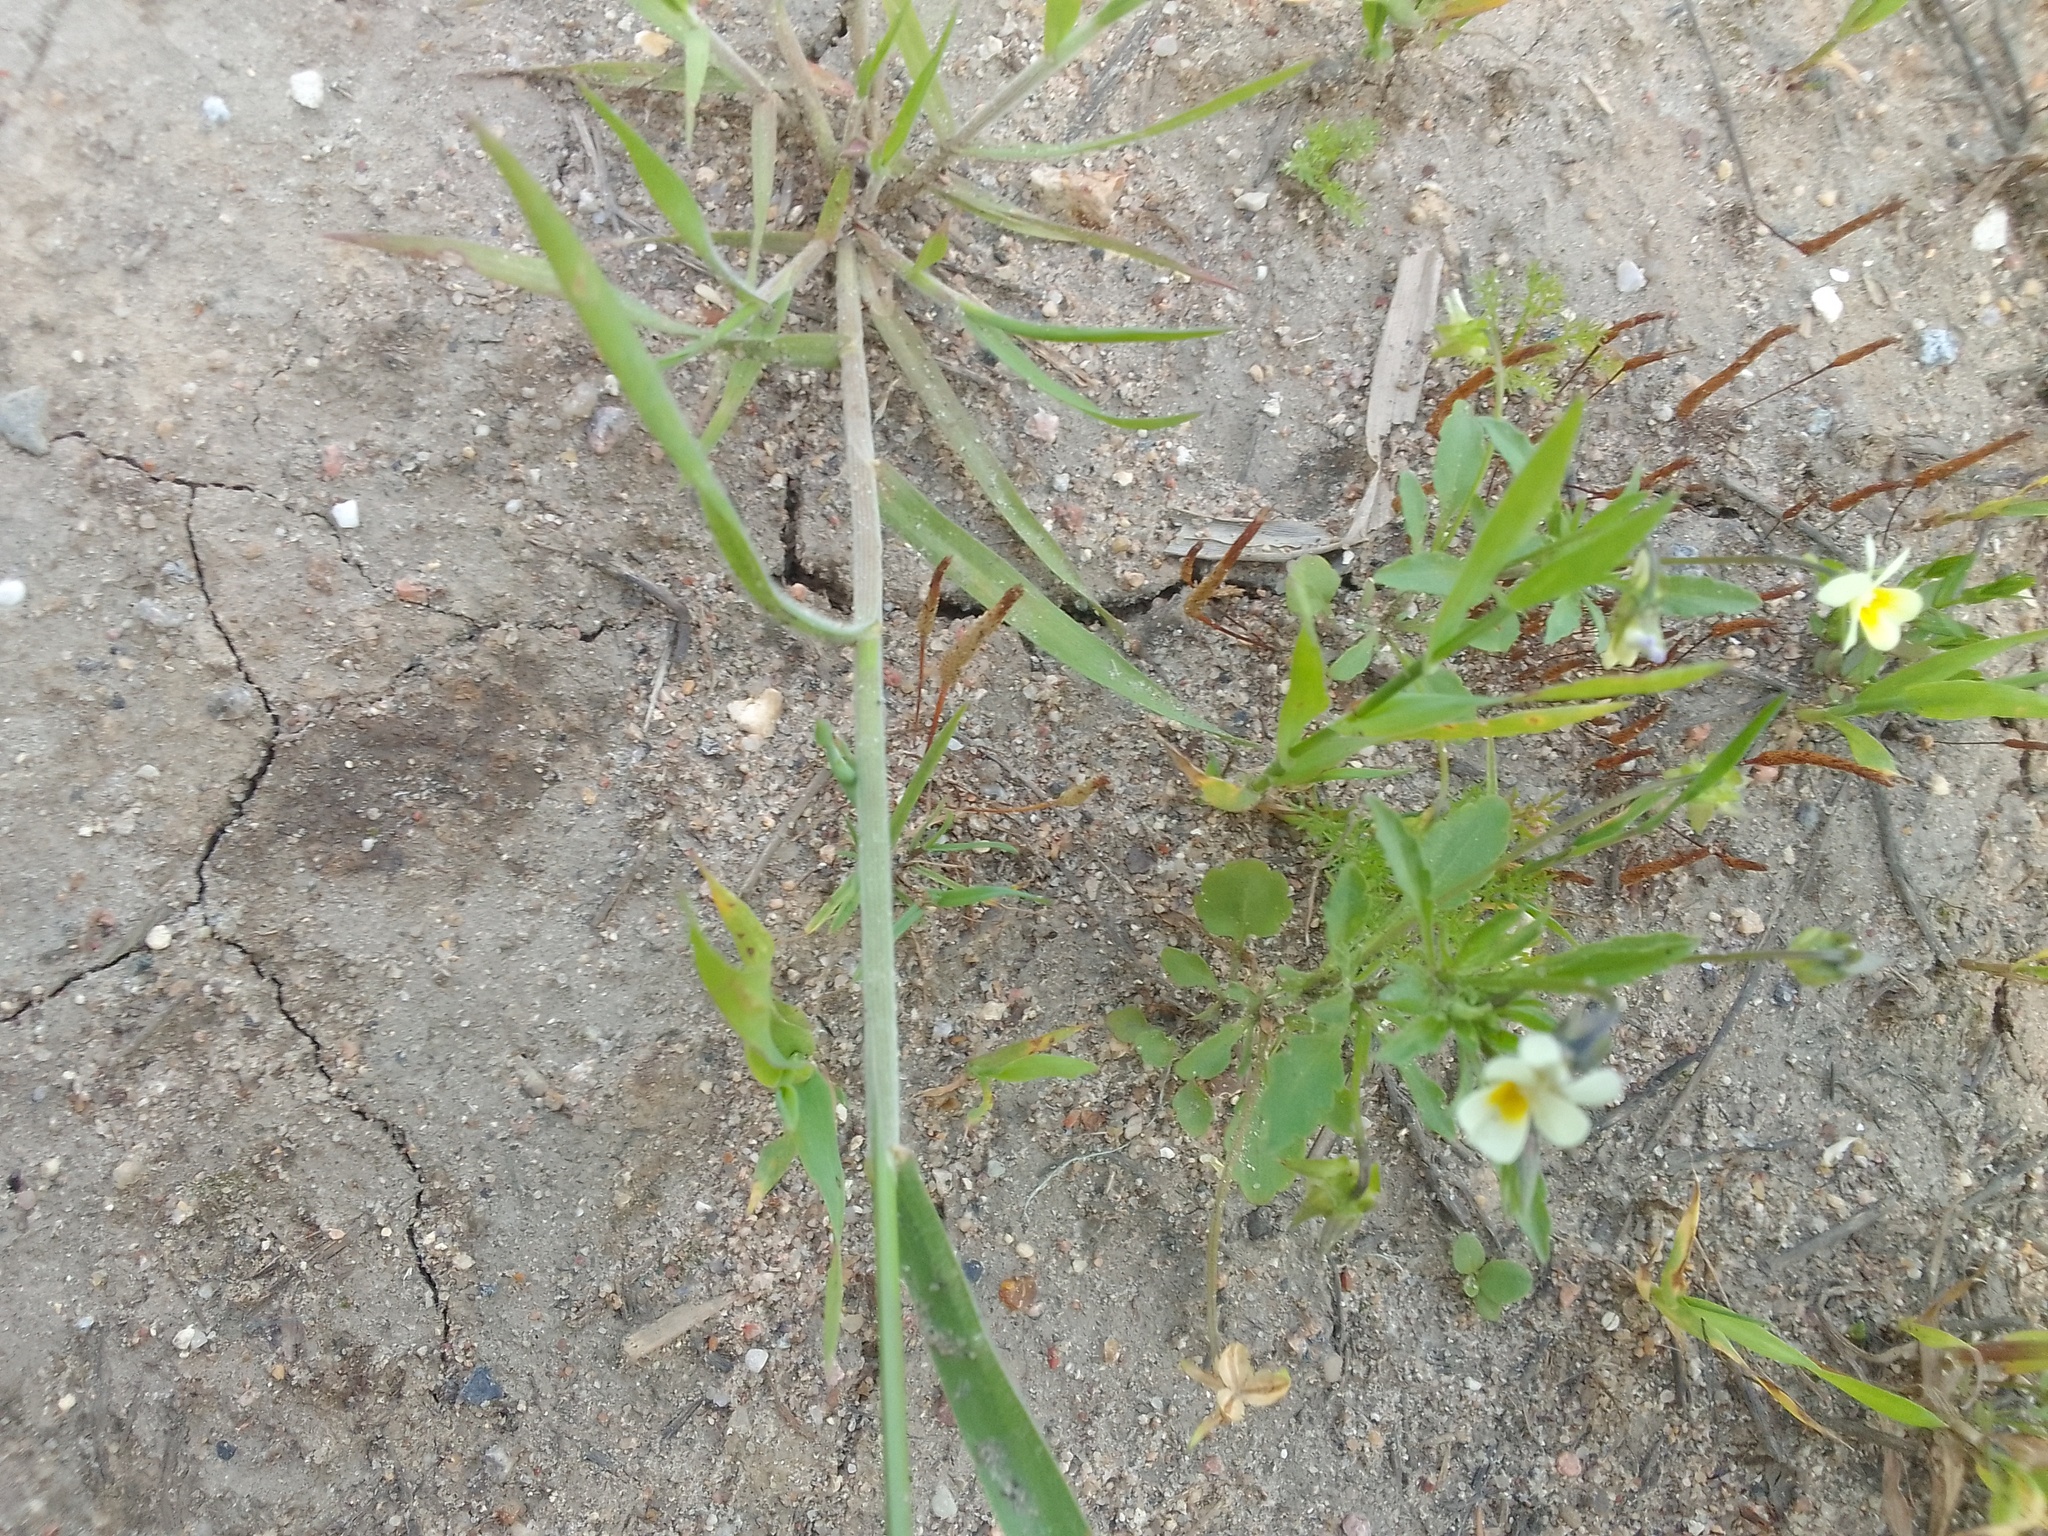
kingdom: Plantae
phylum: Tracheophyta
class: Magnoliopsida
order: Malpighiales
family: Violaceae
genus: Viola
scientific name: Viola arvensis
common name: Field pansy
